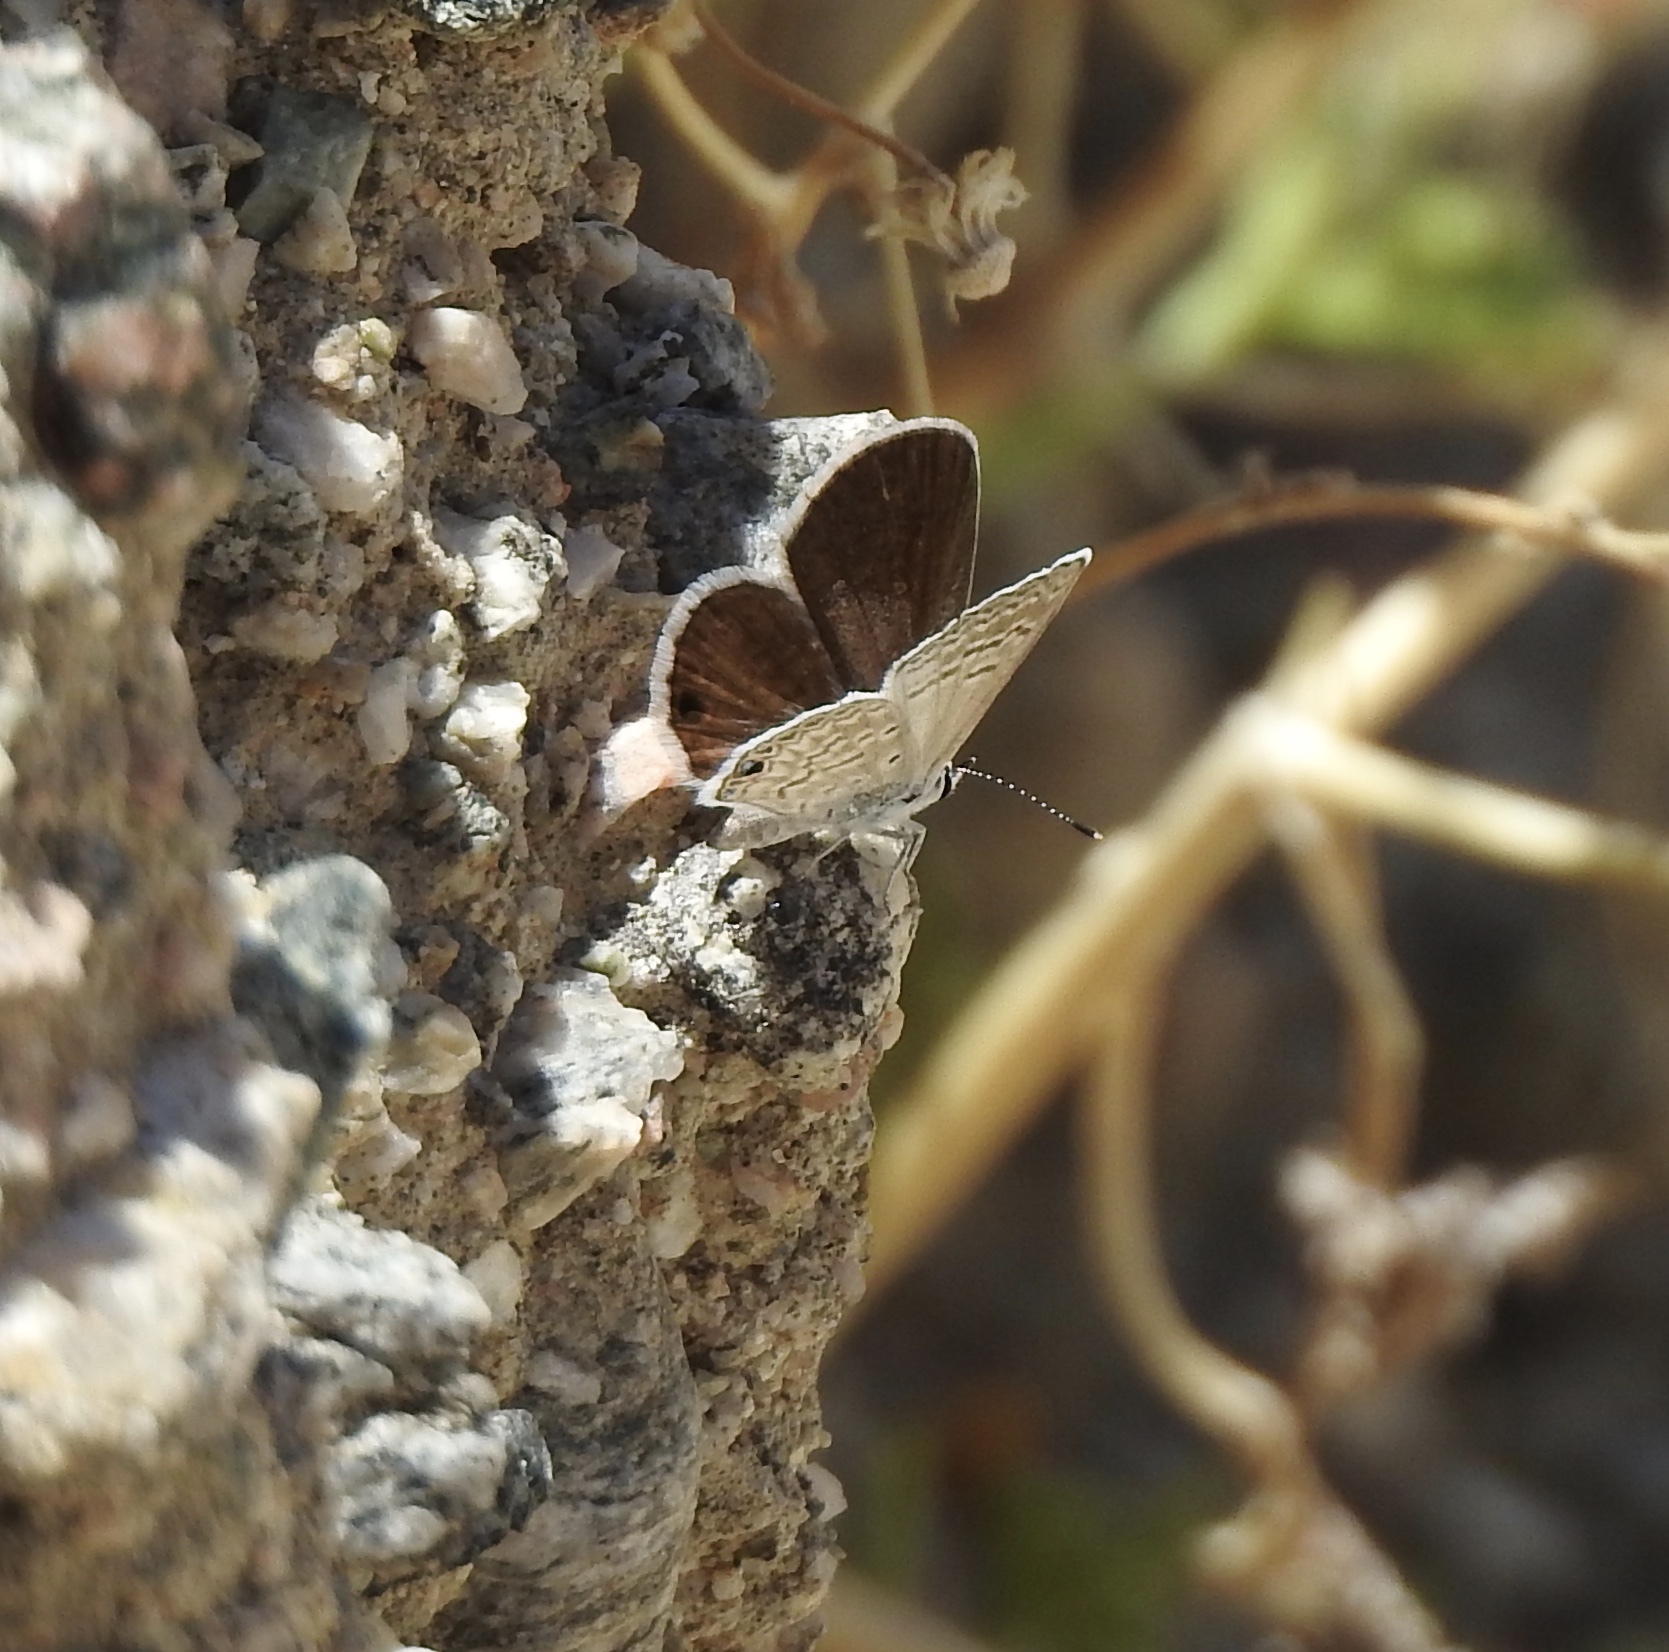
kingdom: Animalia
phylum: Arthropoda
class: Insecta
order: Lepidoptera
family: Lycaenidae
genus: Hemiargus
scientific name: Hemiargus ceraunus
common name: Ceraunus blue
